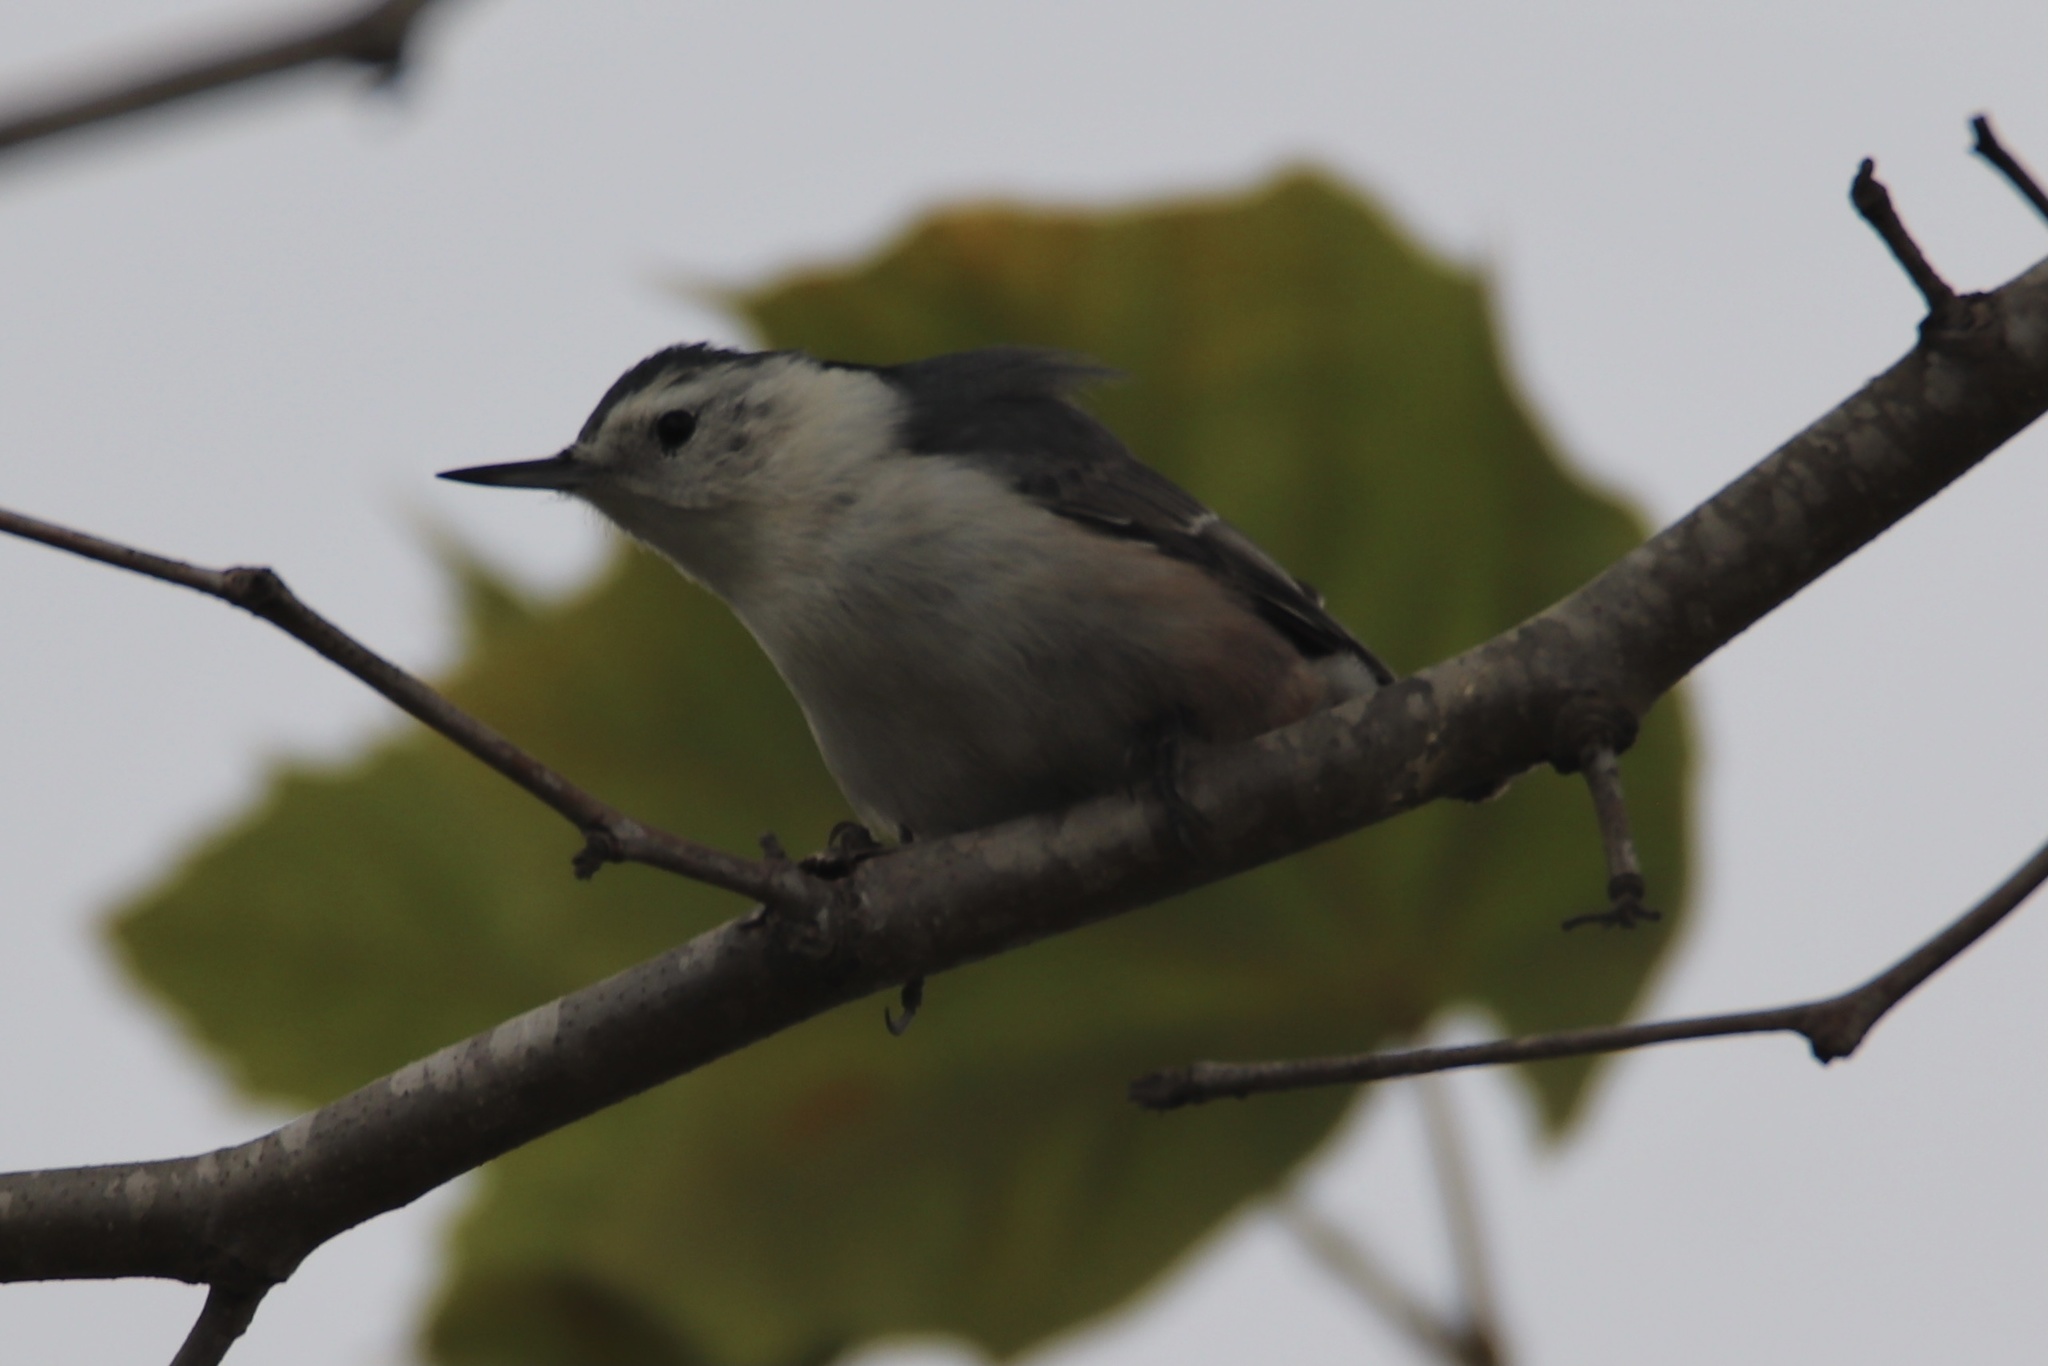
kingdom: Animalia
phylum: Chordata
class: Aves
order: Passeriformes
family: Sittidae
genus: Sitta
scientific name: Sitta carolinensis
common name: White-breasted nuthatch
